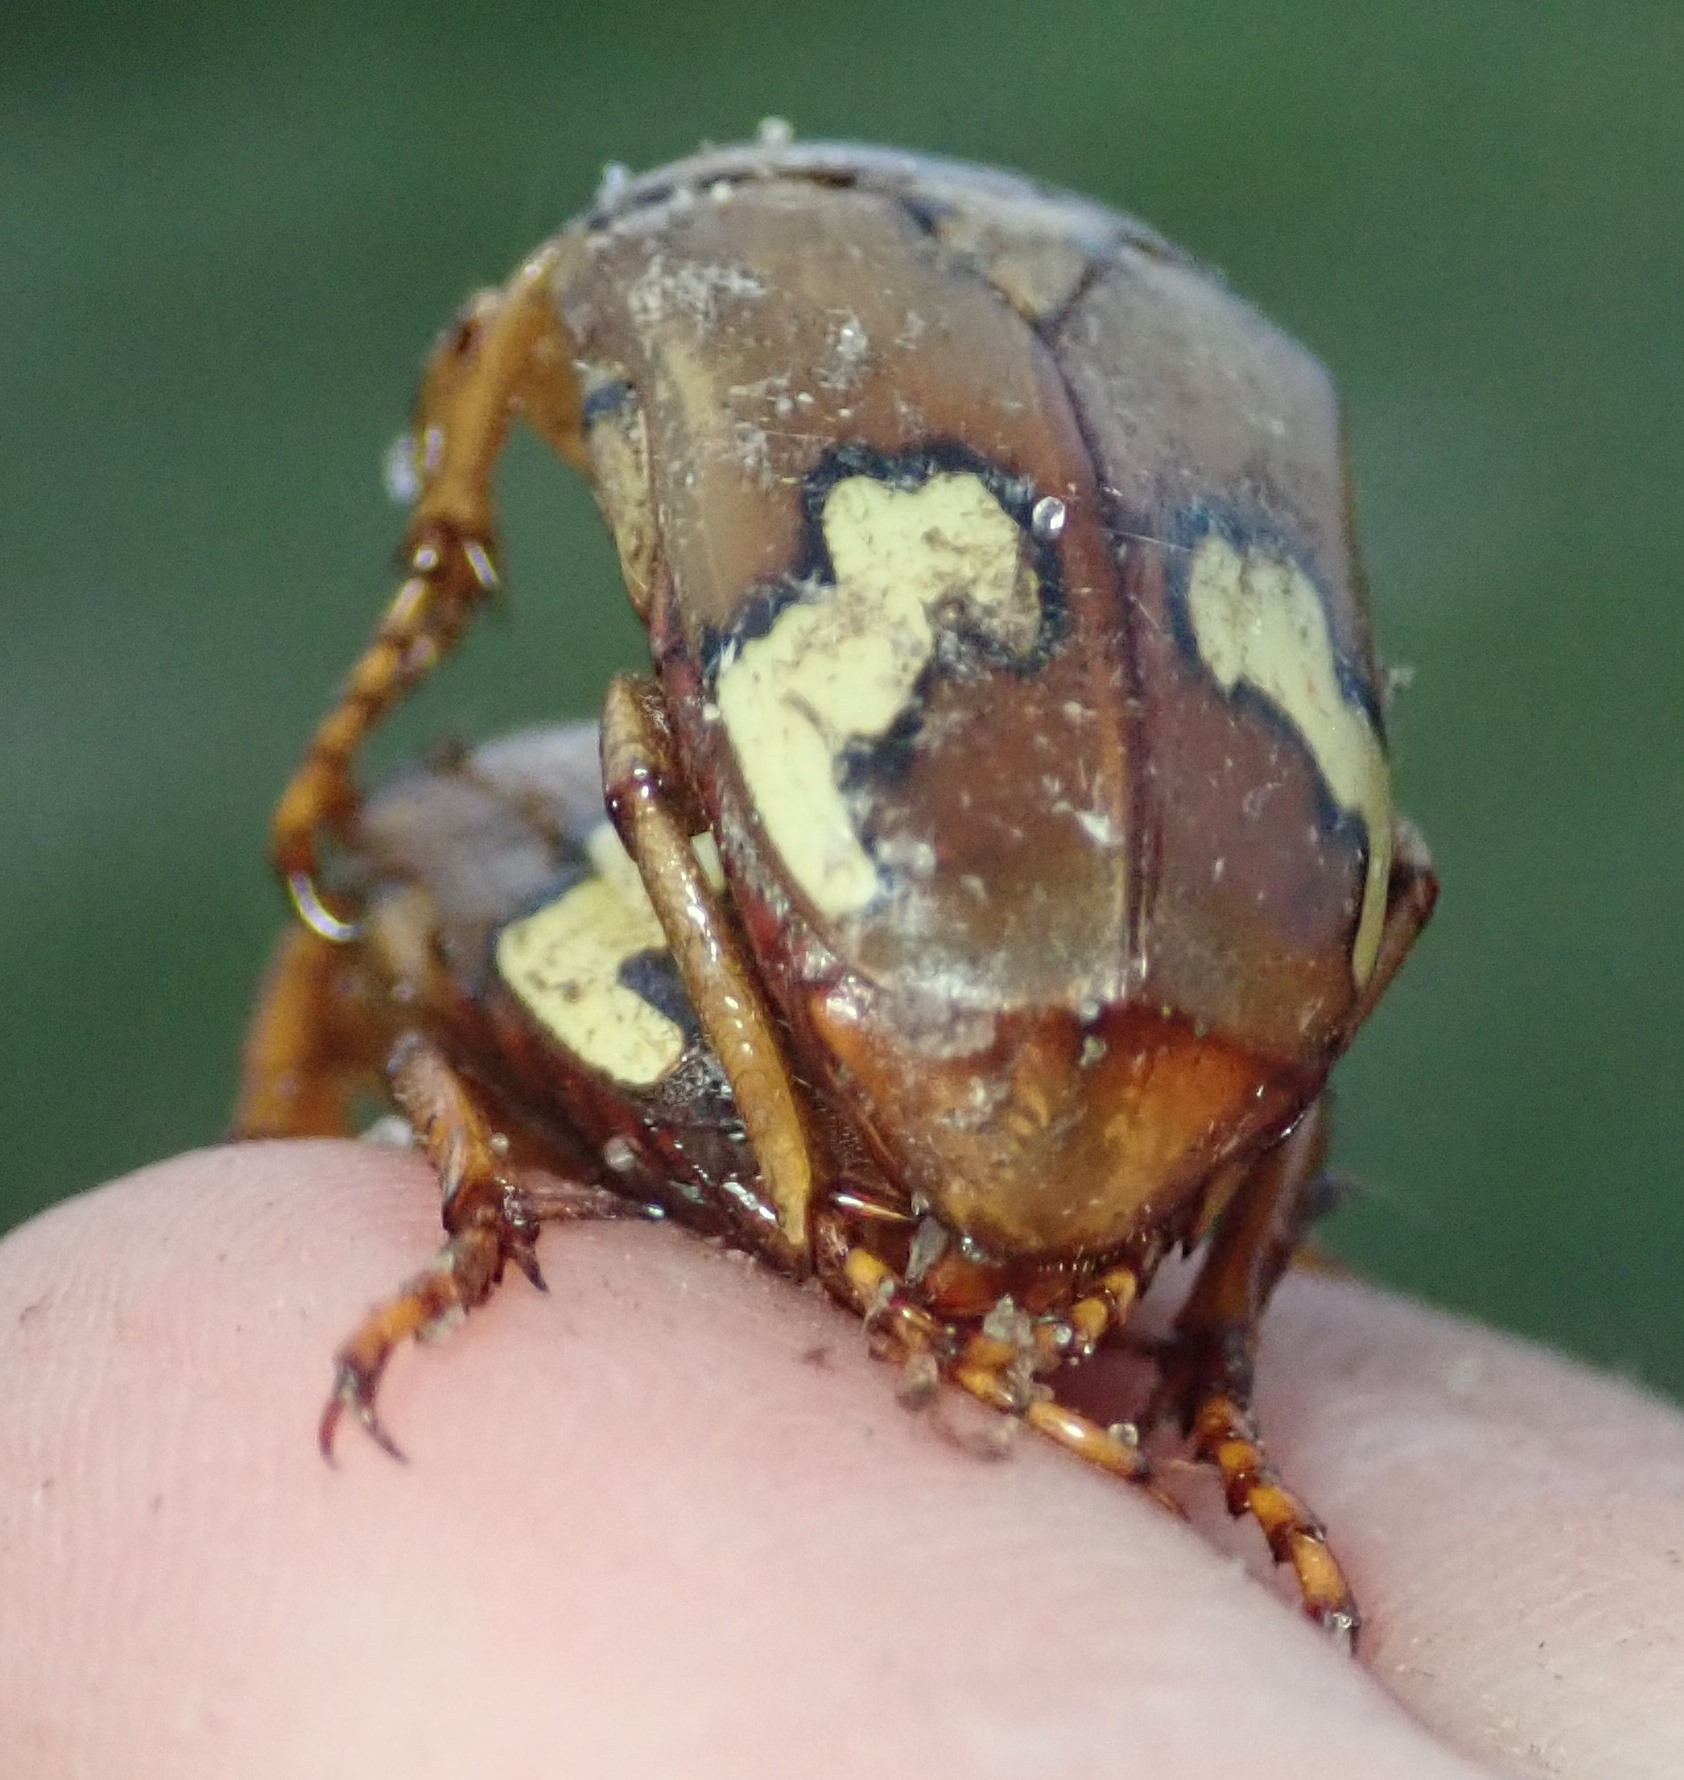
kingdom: Animalia
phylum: Arthropoda
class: Insecta
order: Coleoptera
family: Scarabaeidae
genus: Anisorrhina
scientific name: Anisorrhina flavomaculata
